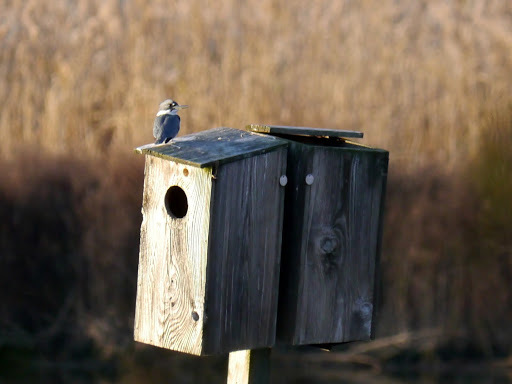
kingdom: Animalia
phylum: Chordata
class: Aves
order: Coraciiformes
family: Alcedinidae
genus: Megaceryle
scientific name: Megaceryle alcyon
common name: Belted kingfisher
